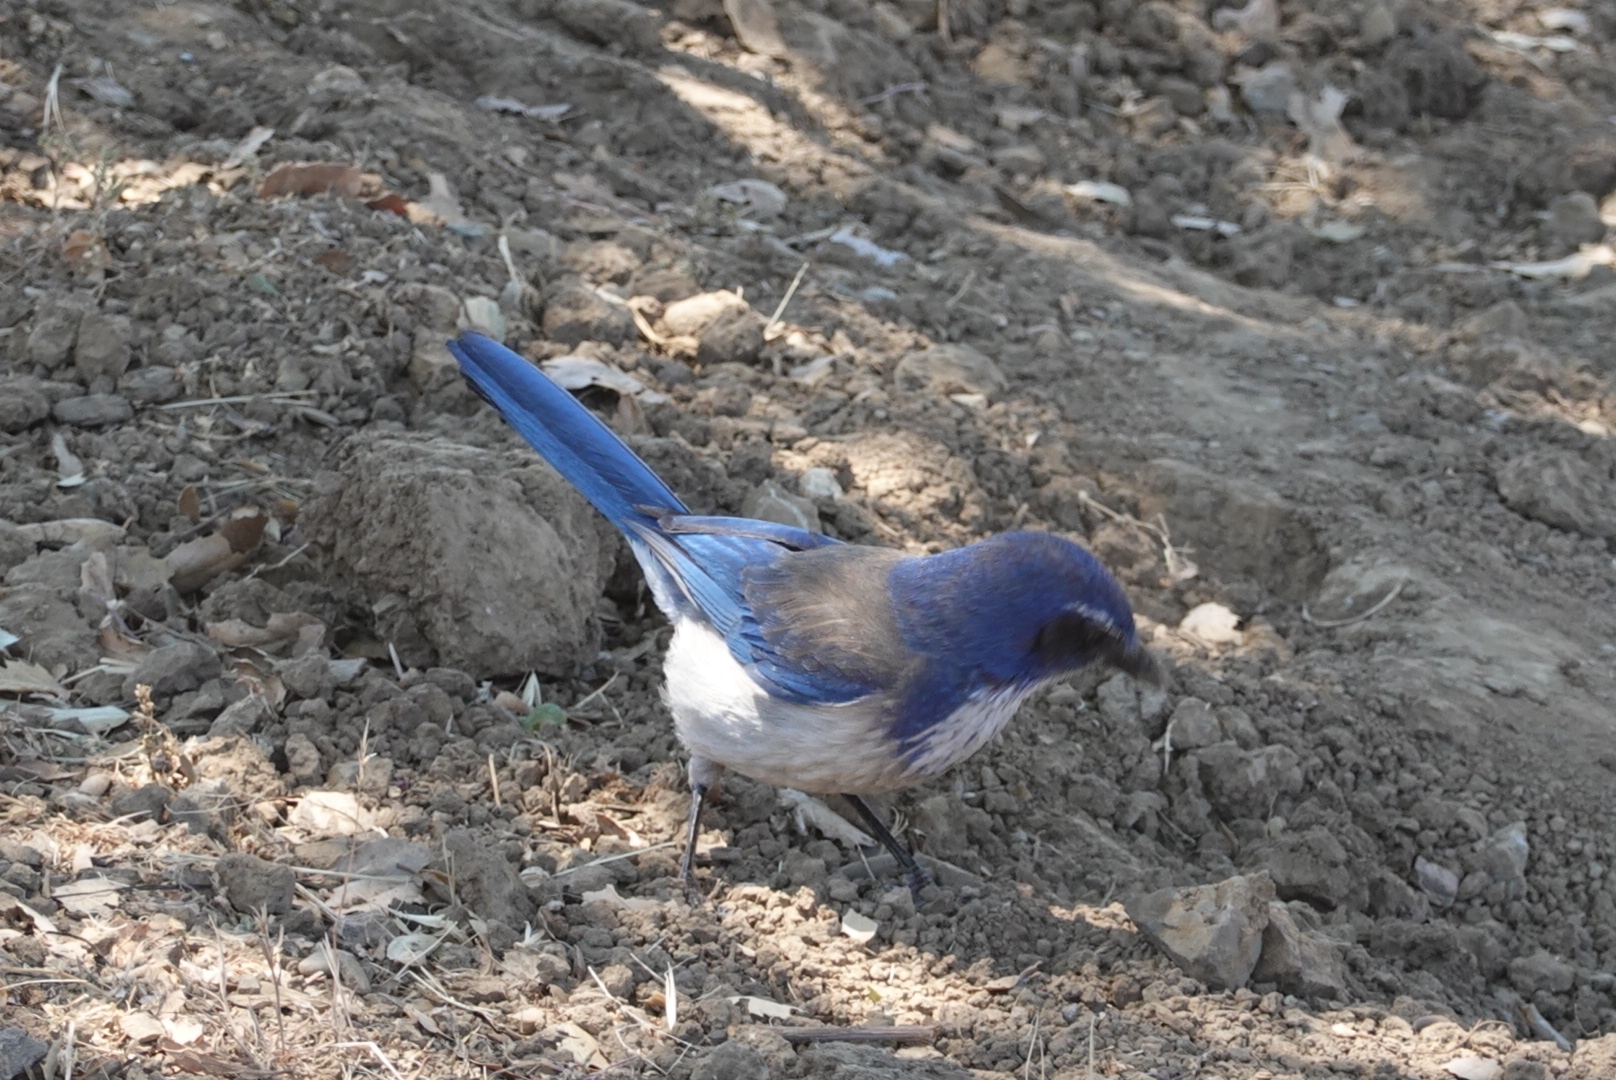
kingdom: Animalia
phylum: Chordata
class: Aves
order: Passeriformes
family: Corvidae
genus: Aphelocoma
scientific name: Aphelocoma californica
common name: California scrub-jay
